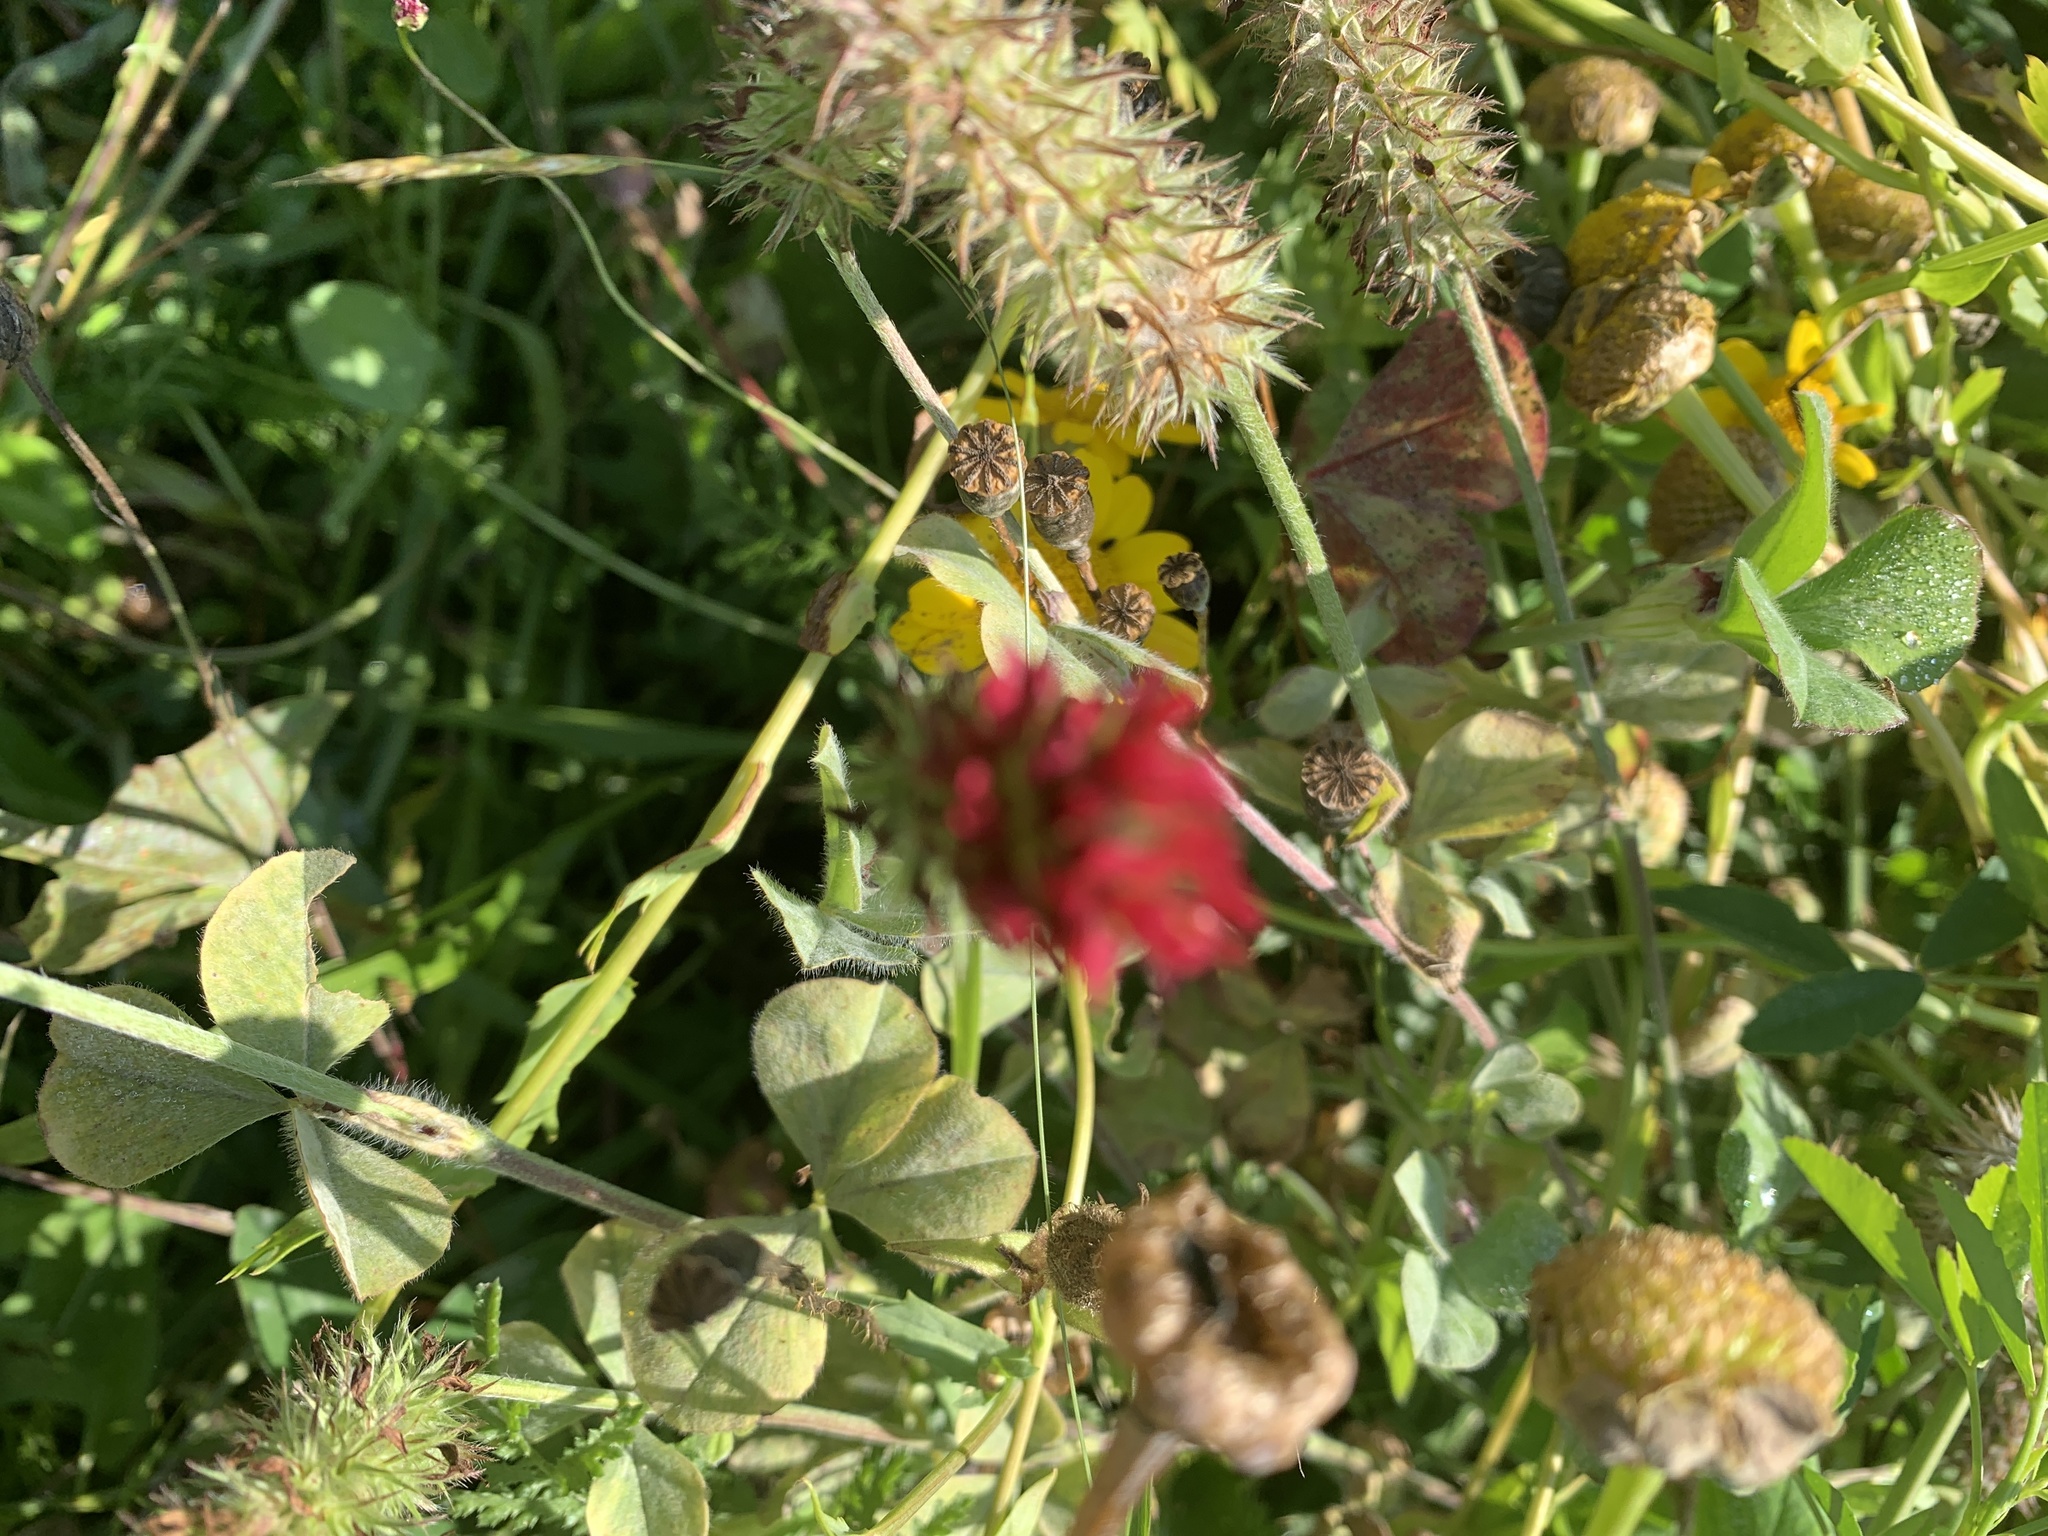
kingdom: Plantae
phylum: Tracheophyta
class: Magnoliopsida
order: Fabales
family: Fabaceae
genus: Trifolium
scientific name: Trifolium incarnatum
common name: Crimson clover
